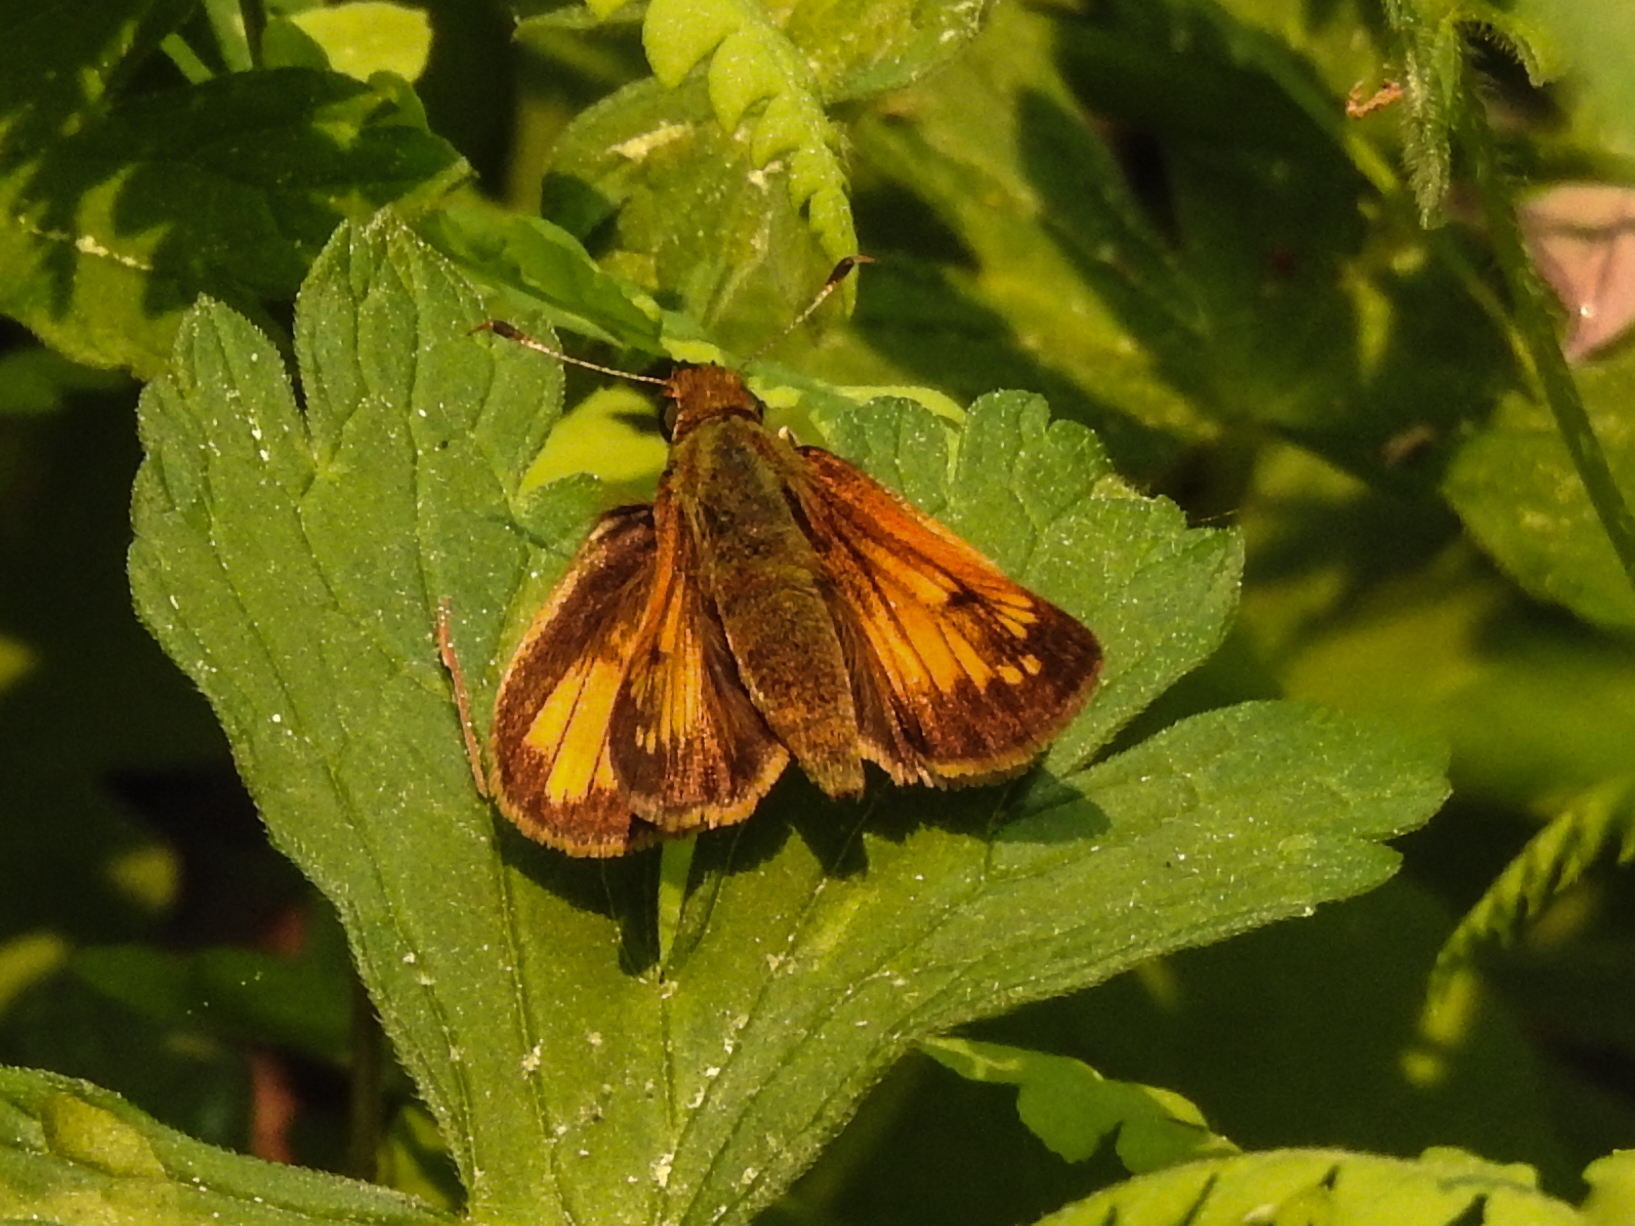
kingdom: Animalia
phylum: Arthropoda
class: Insecta
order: Lepidoptera
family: Hesperiidae
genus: Lon
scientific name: Lon hobomok
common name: Hobomok skipper
